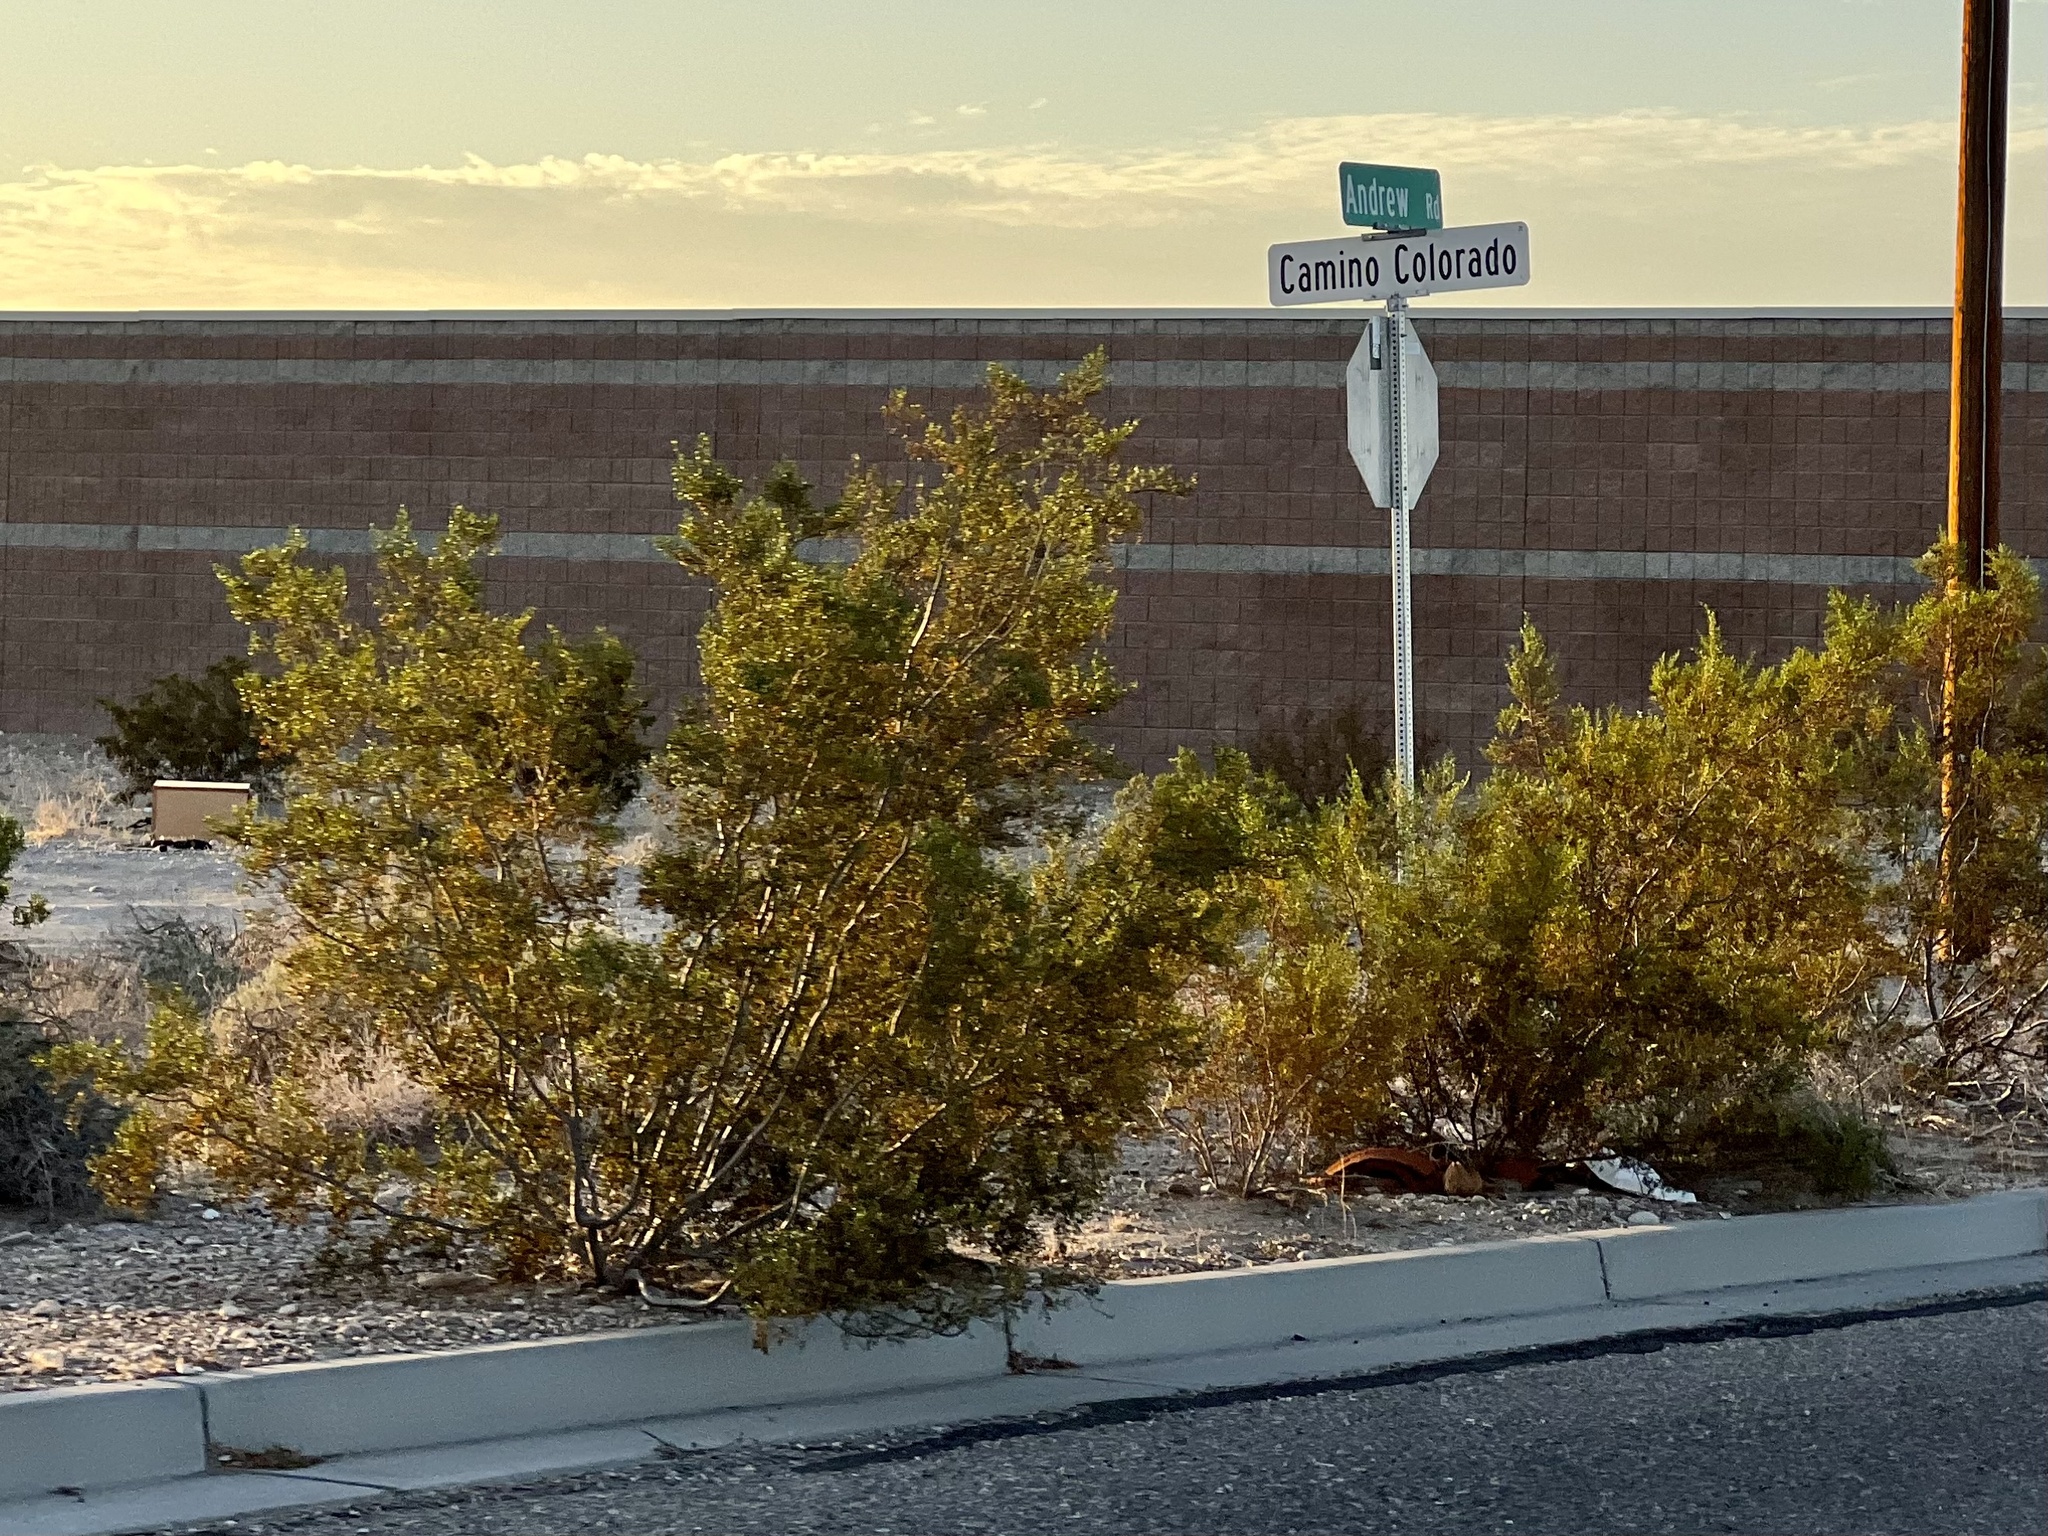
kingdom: Plantae
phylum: Tracheophyta
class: Magnoliopsida
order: Zygophyllales
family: Zygophyllaceae
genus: Larrea
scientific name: Larrea tridentata
